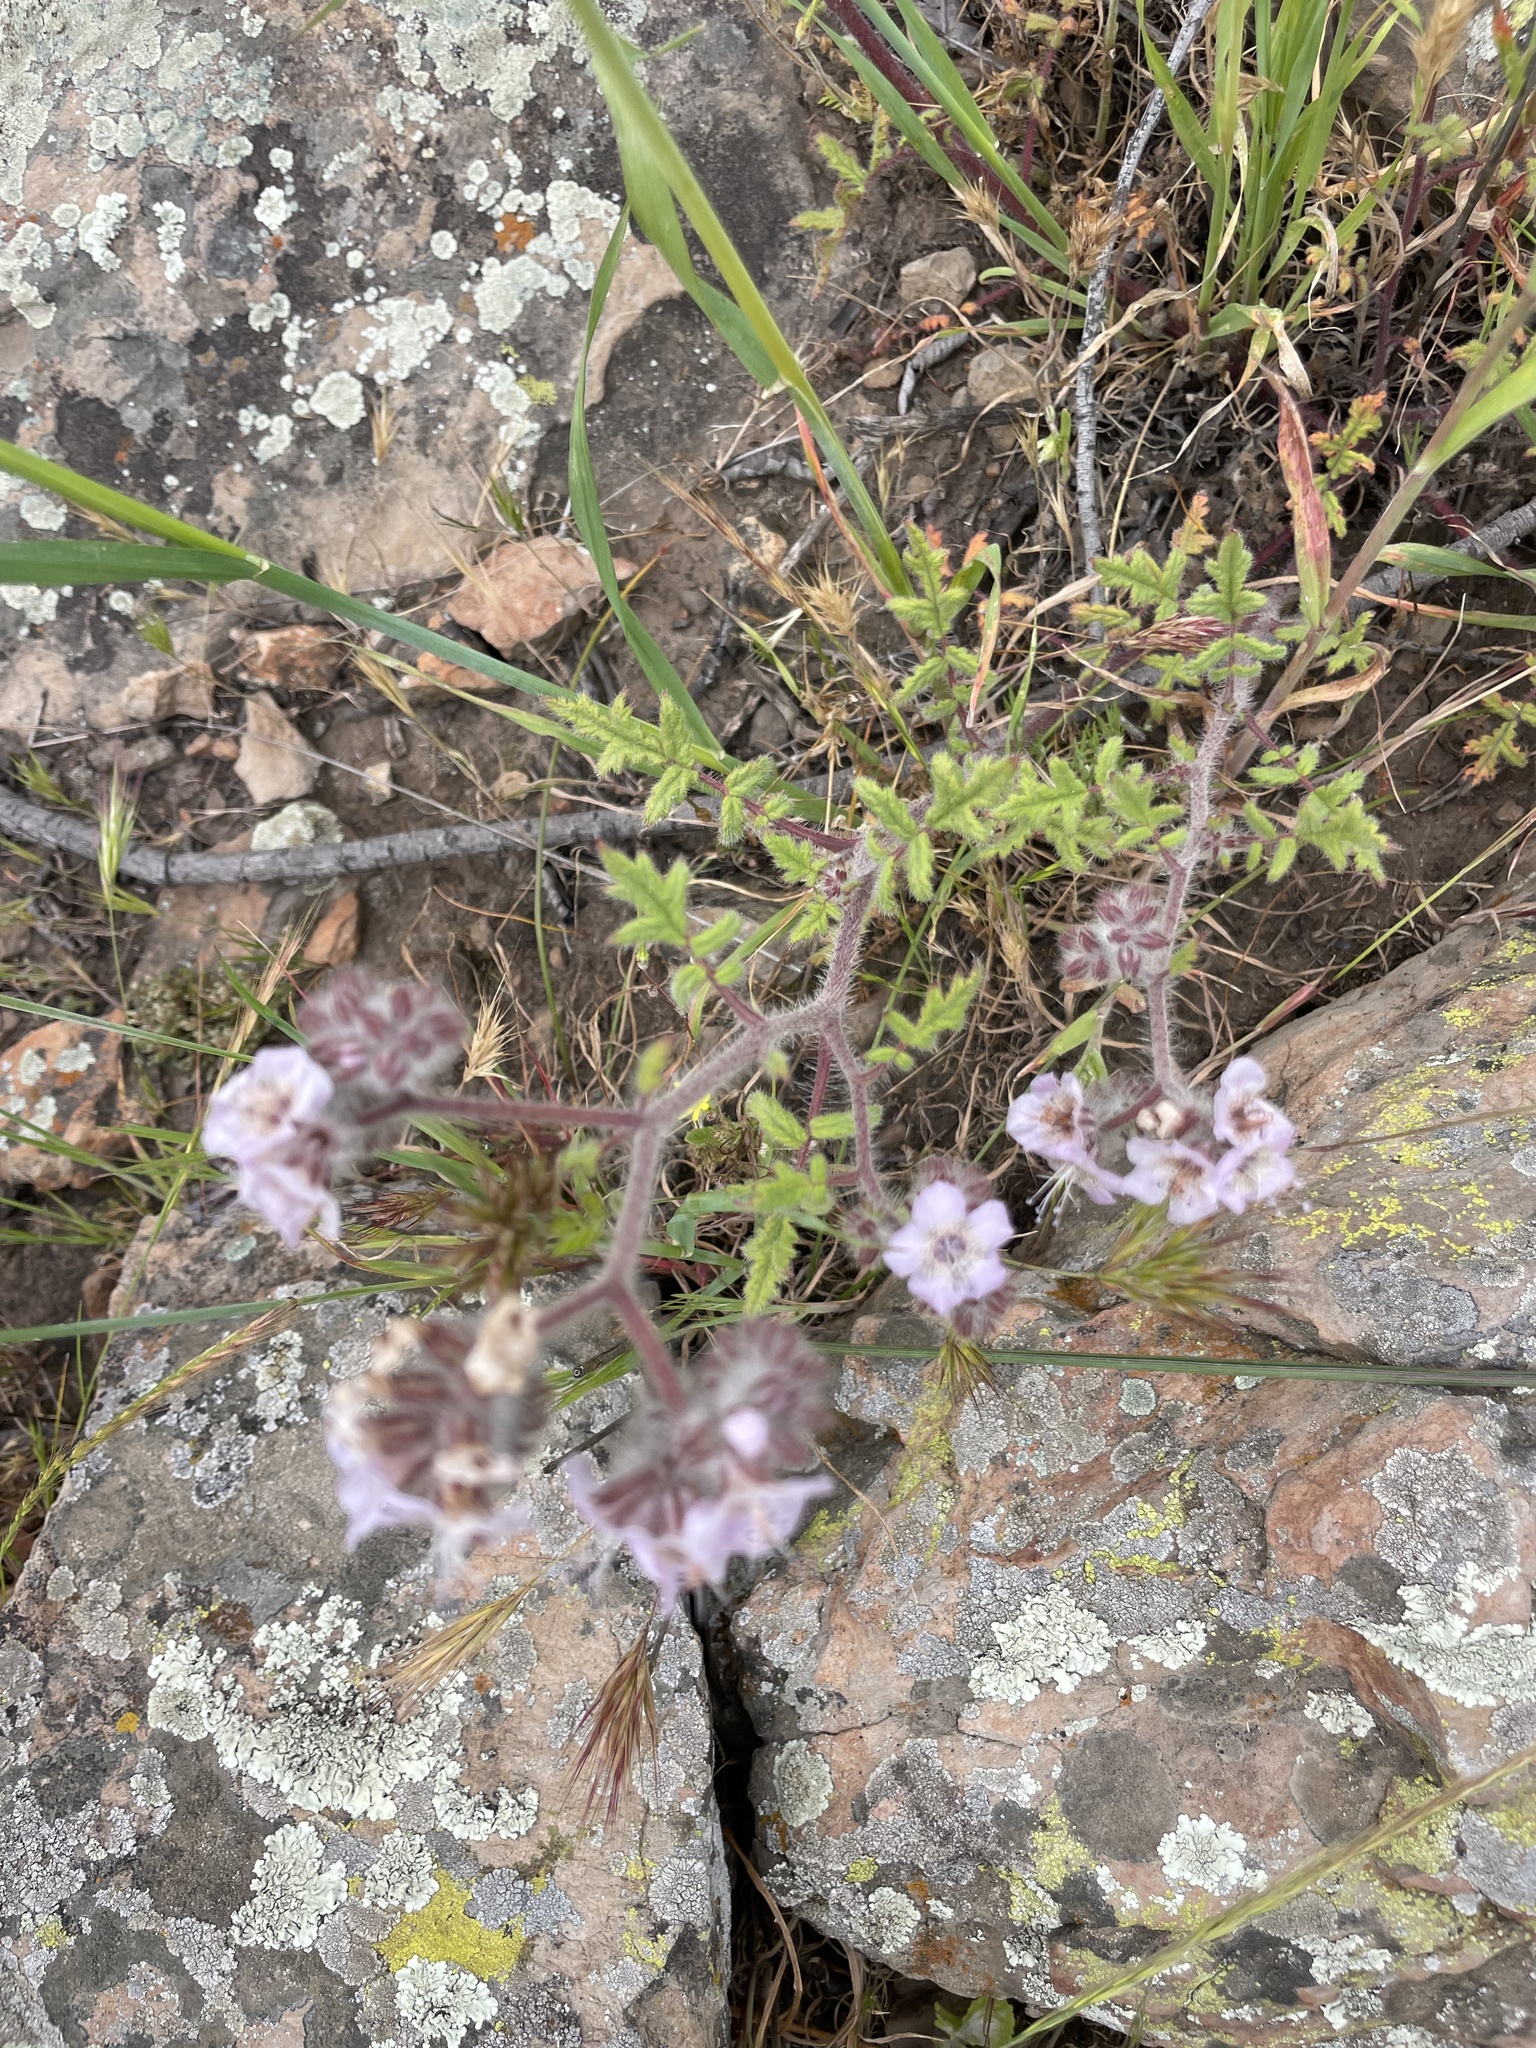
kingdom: Plantae
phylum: Tracheophyta
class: Magnoliopsida
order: Boraginales
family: Hydrophyllaceae
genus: Phacelia
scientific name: Phacelia cicutaria
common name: Caterpillar phacelia
